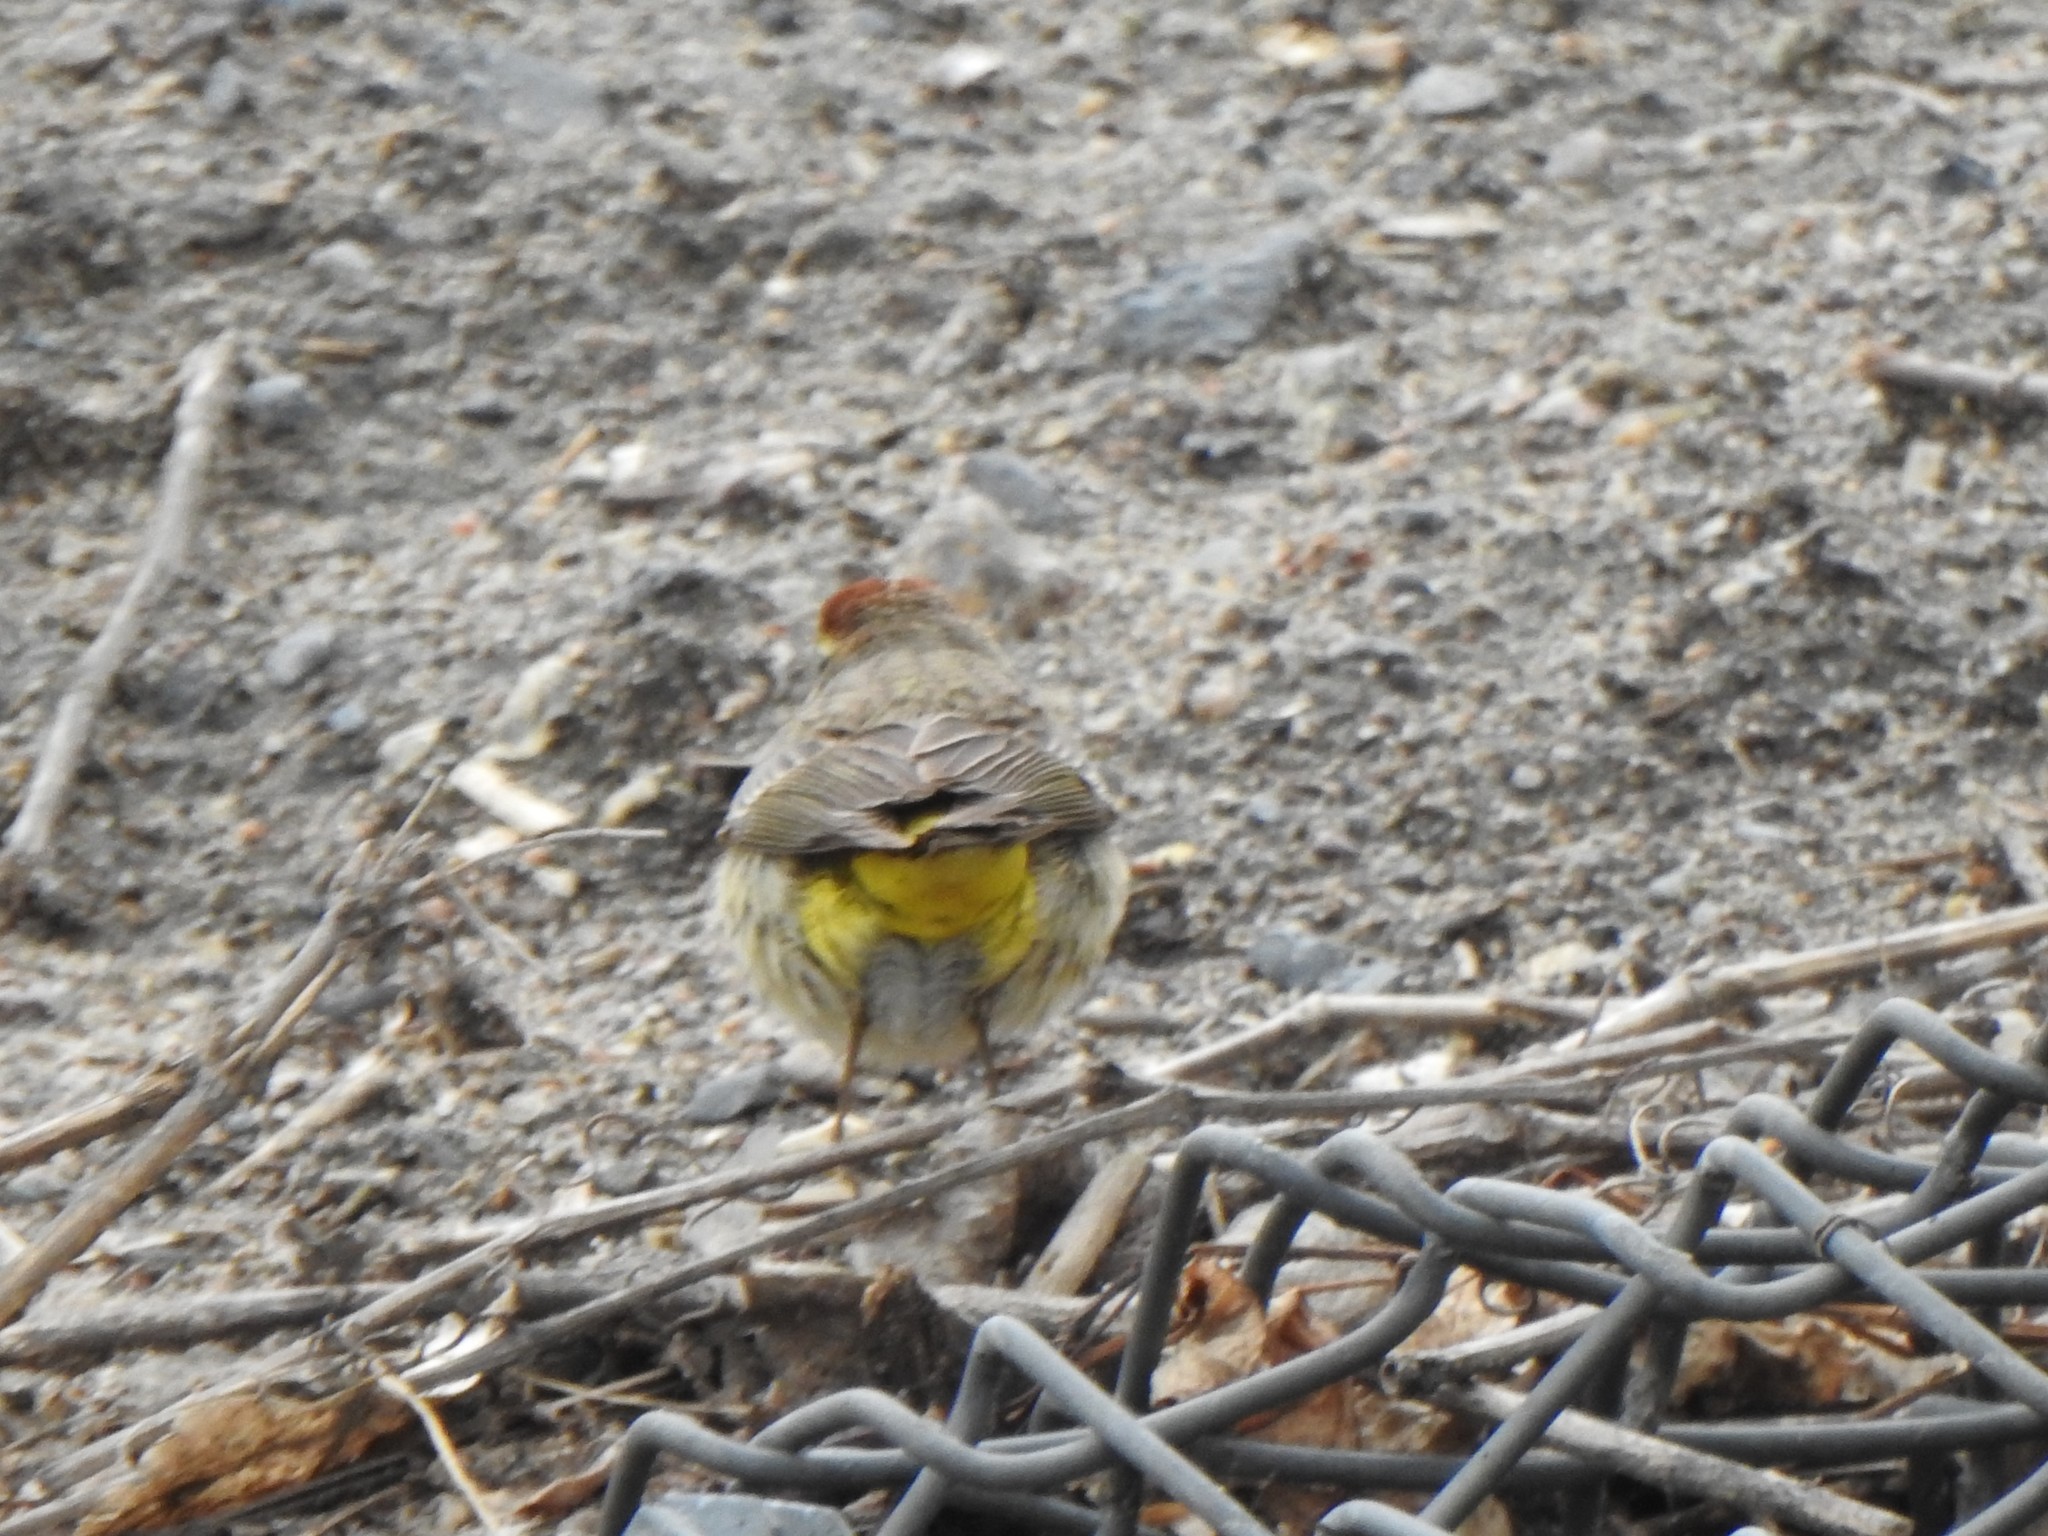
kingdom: Animalia
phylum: Chordata
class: Aves
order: Passeriformes
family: Parulidae
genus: Setophaga
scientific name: Setophaga palmarum
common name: Palm warbler
